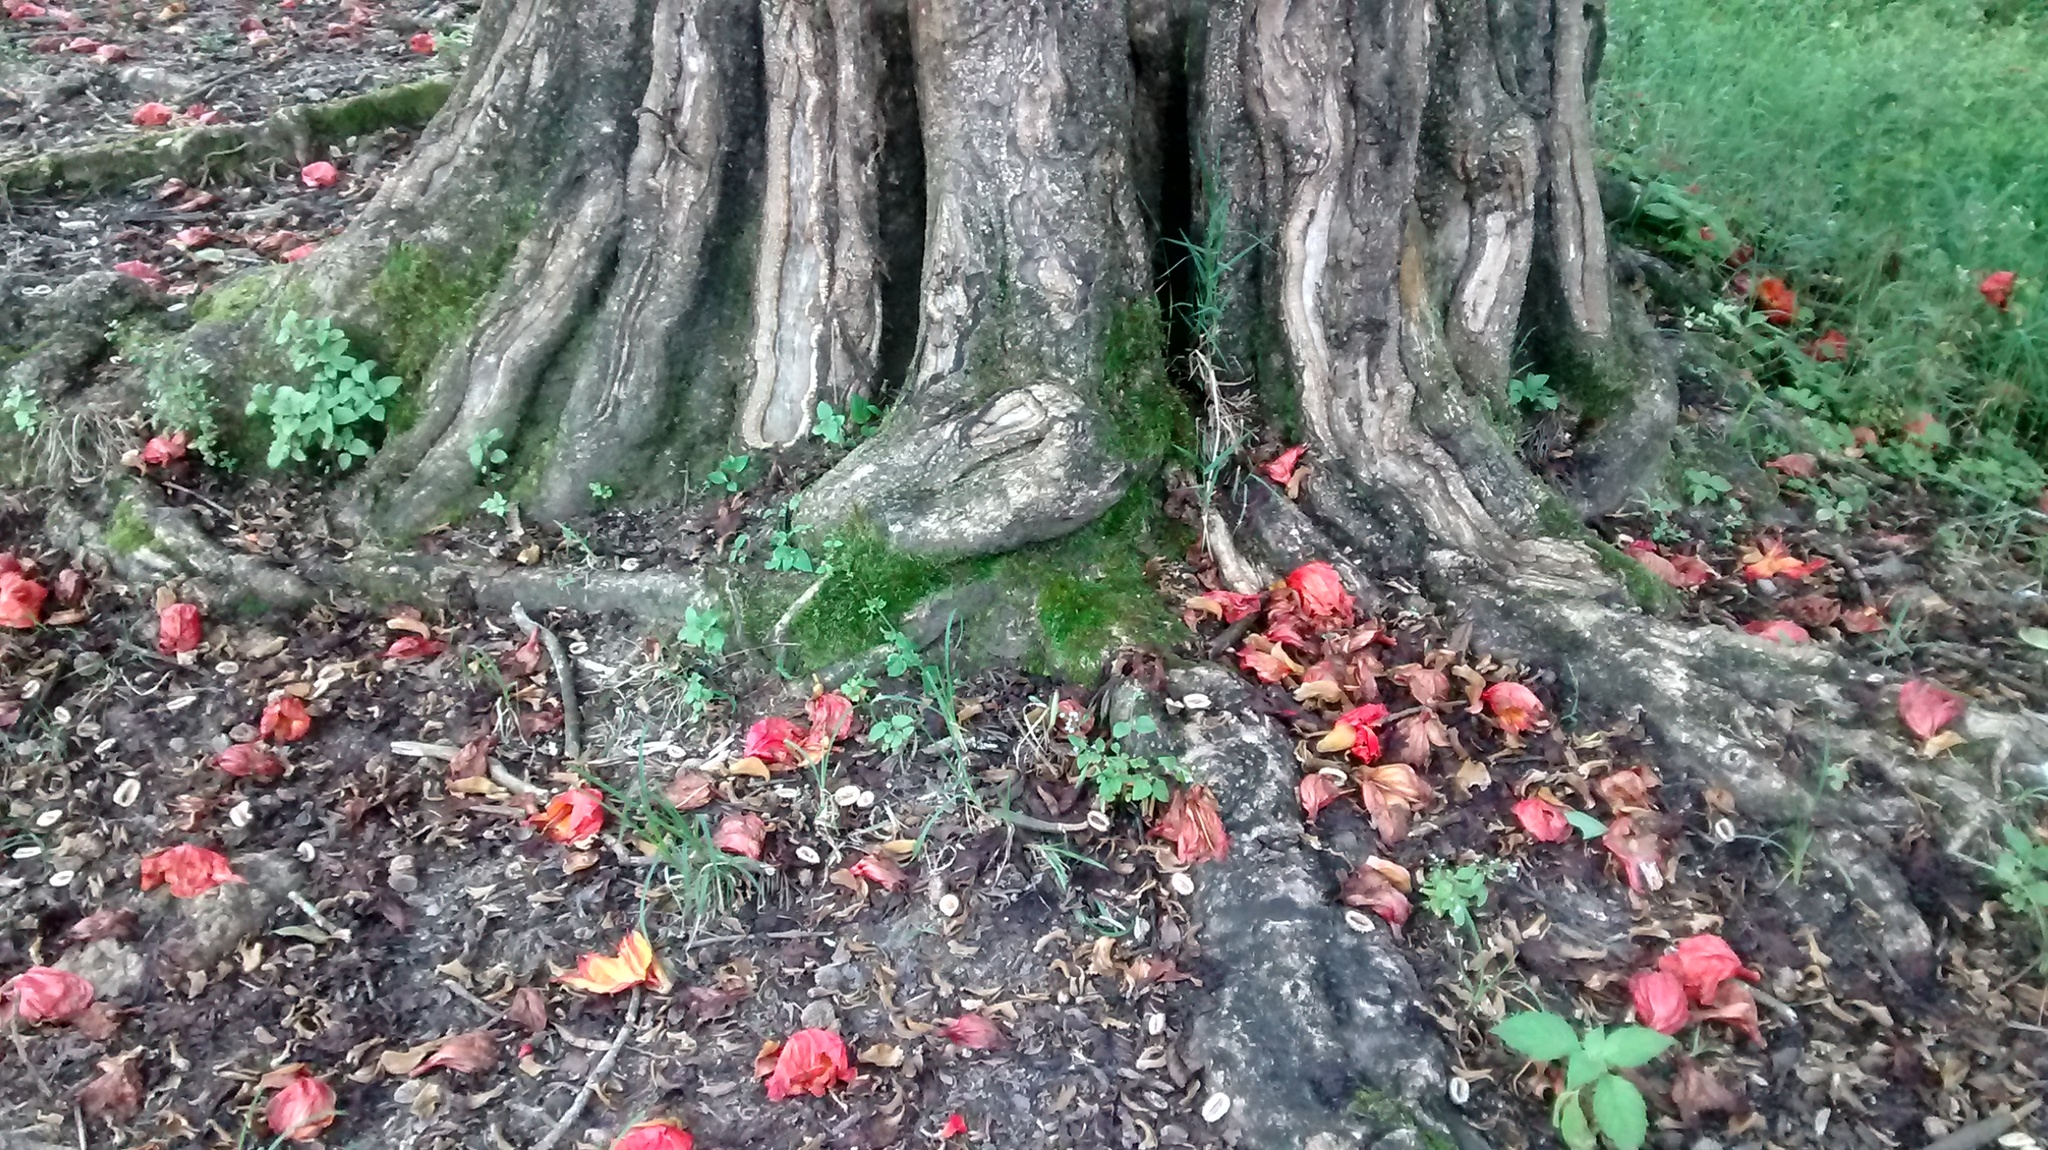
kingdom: Plantae
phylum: Tracheophyta
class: Magnoliopsida
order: Lamiales
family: Bignoniaceae
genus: Spathodea
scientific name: Spathodea campanulata
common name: African tuliptree
